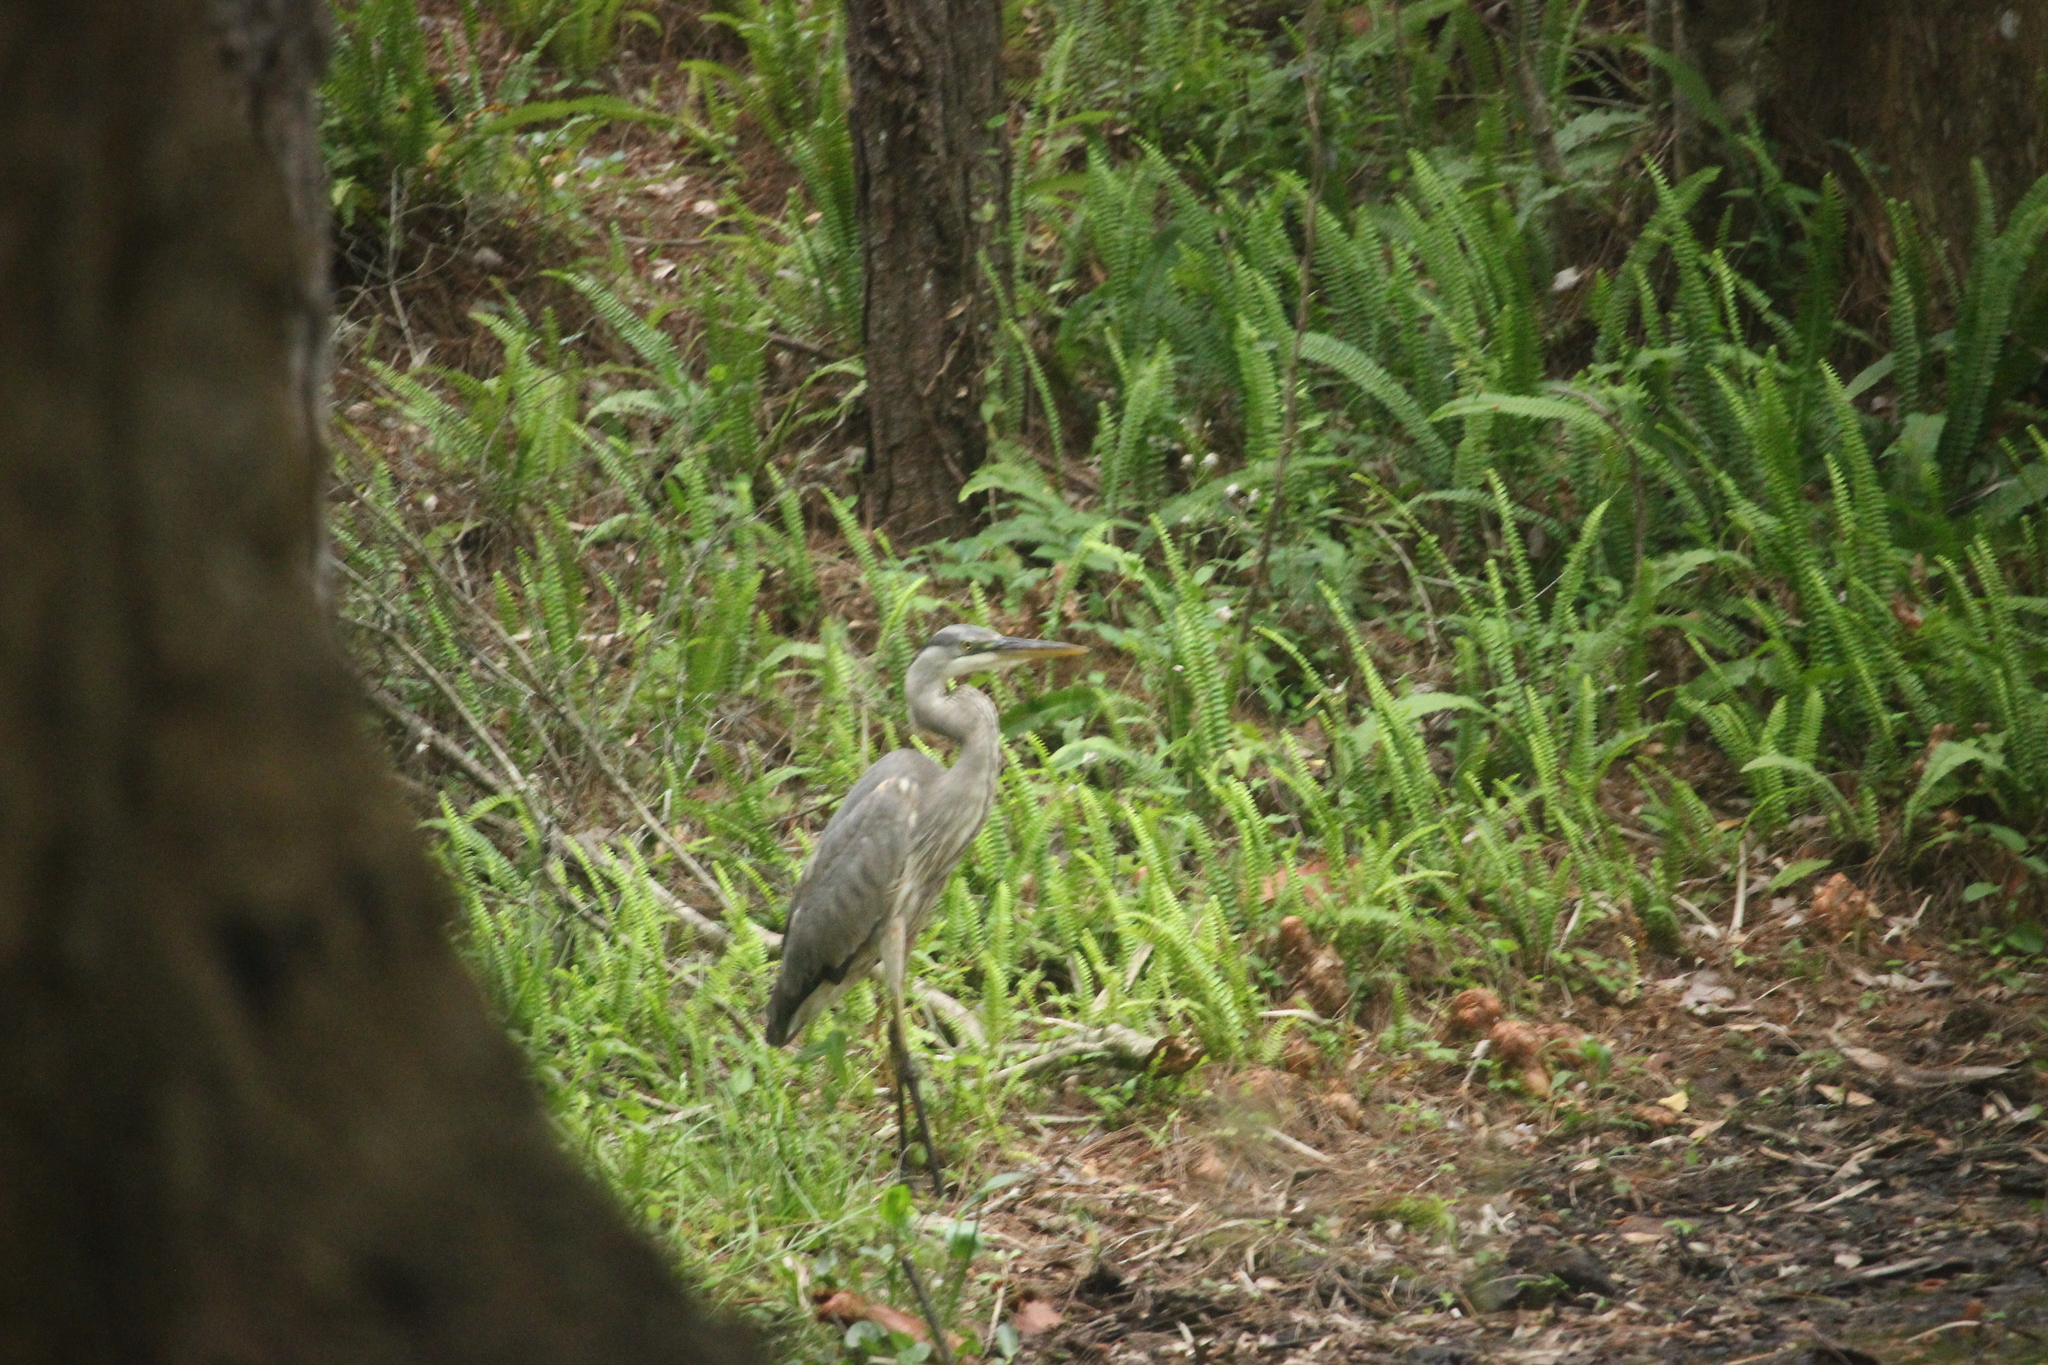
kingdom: Animalia
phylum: Chordata
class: Aves
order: Pelecaniformes
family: Ardeidae
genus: Ardea
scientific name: Ardea herodias
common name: Great blue heron
